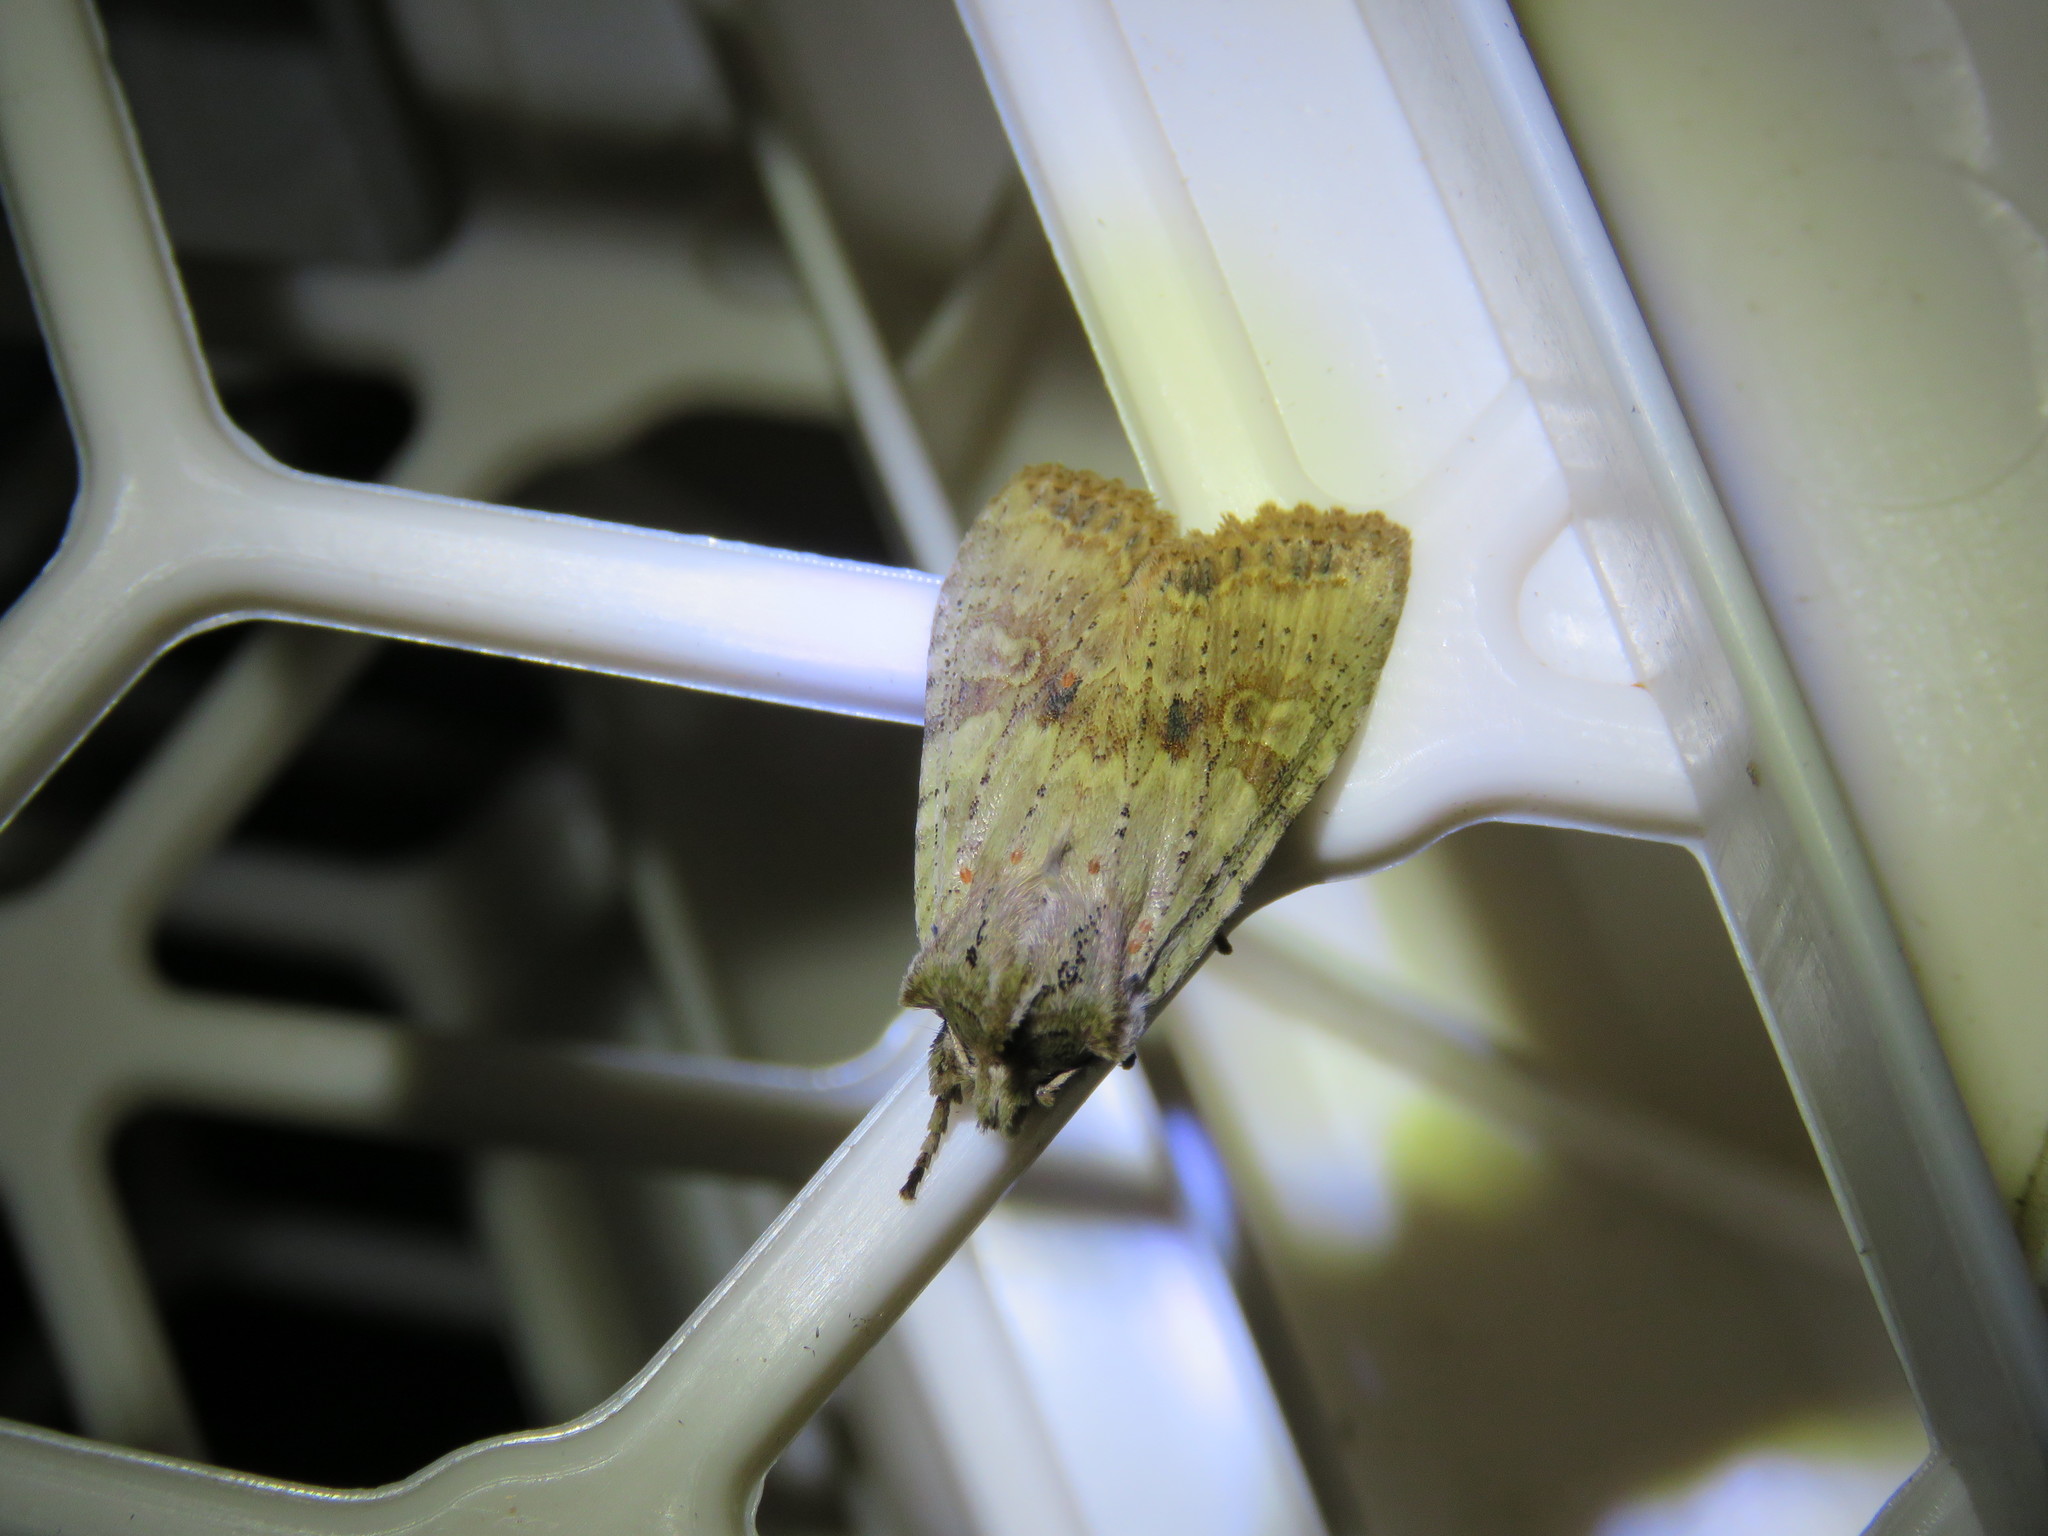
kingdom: Animalia
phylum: Arthropoda
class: Insecta
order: Lepidoptera
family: Noctuidae
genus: Lithophane
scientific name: Lithophane bethunei
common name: Bethune's pinion moth
